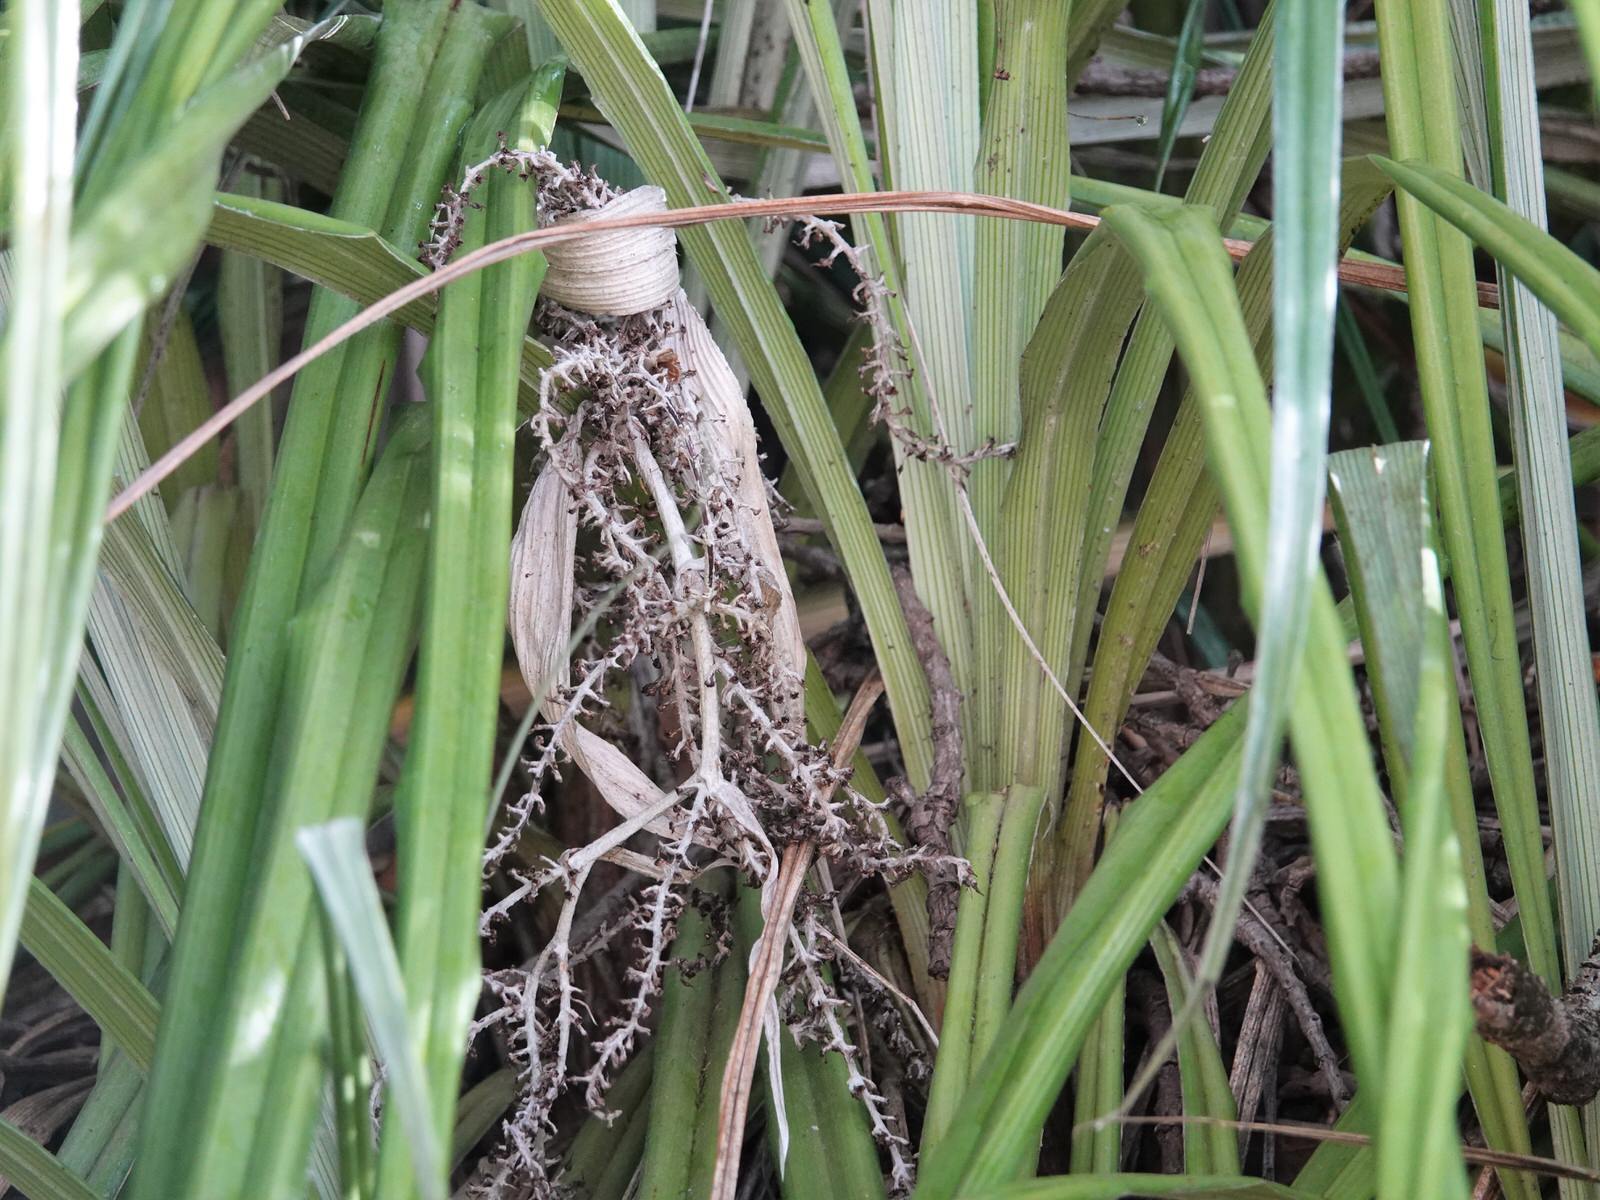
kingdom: Plantae
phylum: Tracheophyta
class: Liliopsida
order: Asparagales
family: Asteliaceae
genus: Astelia
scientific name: Astelia banksii
